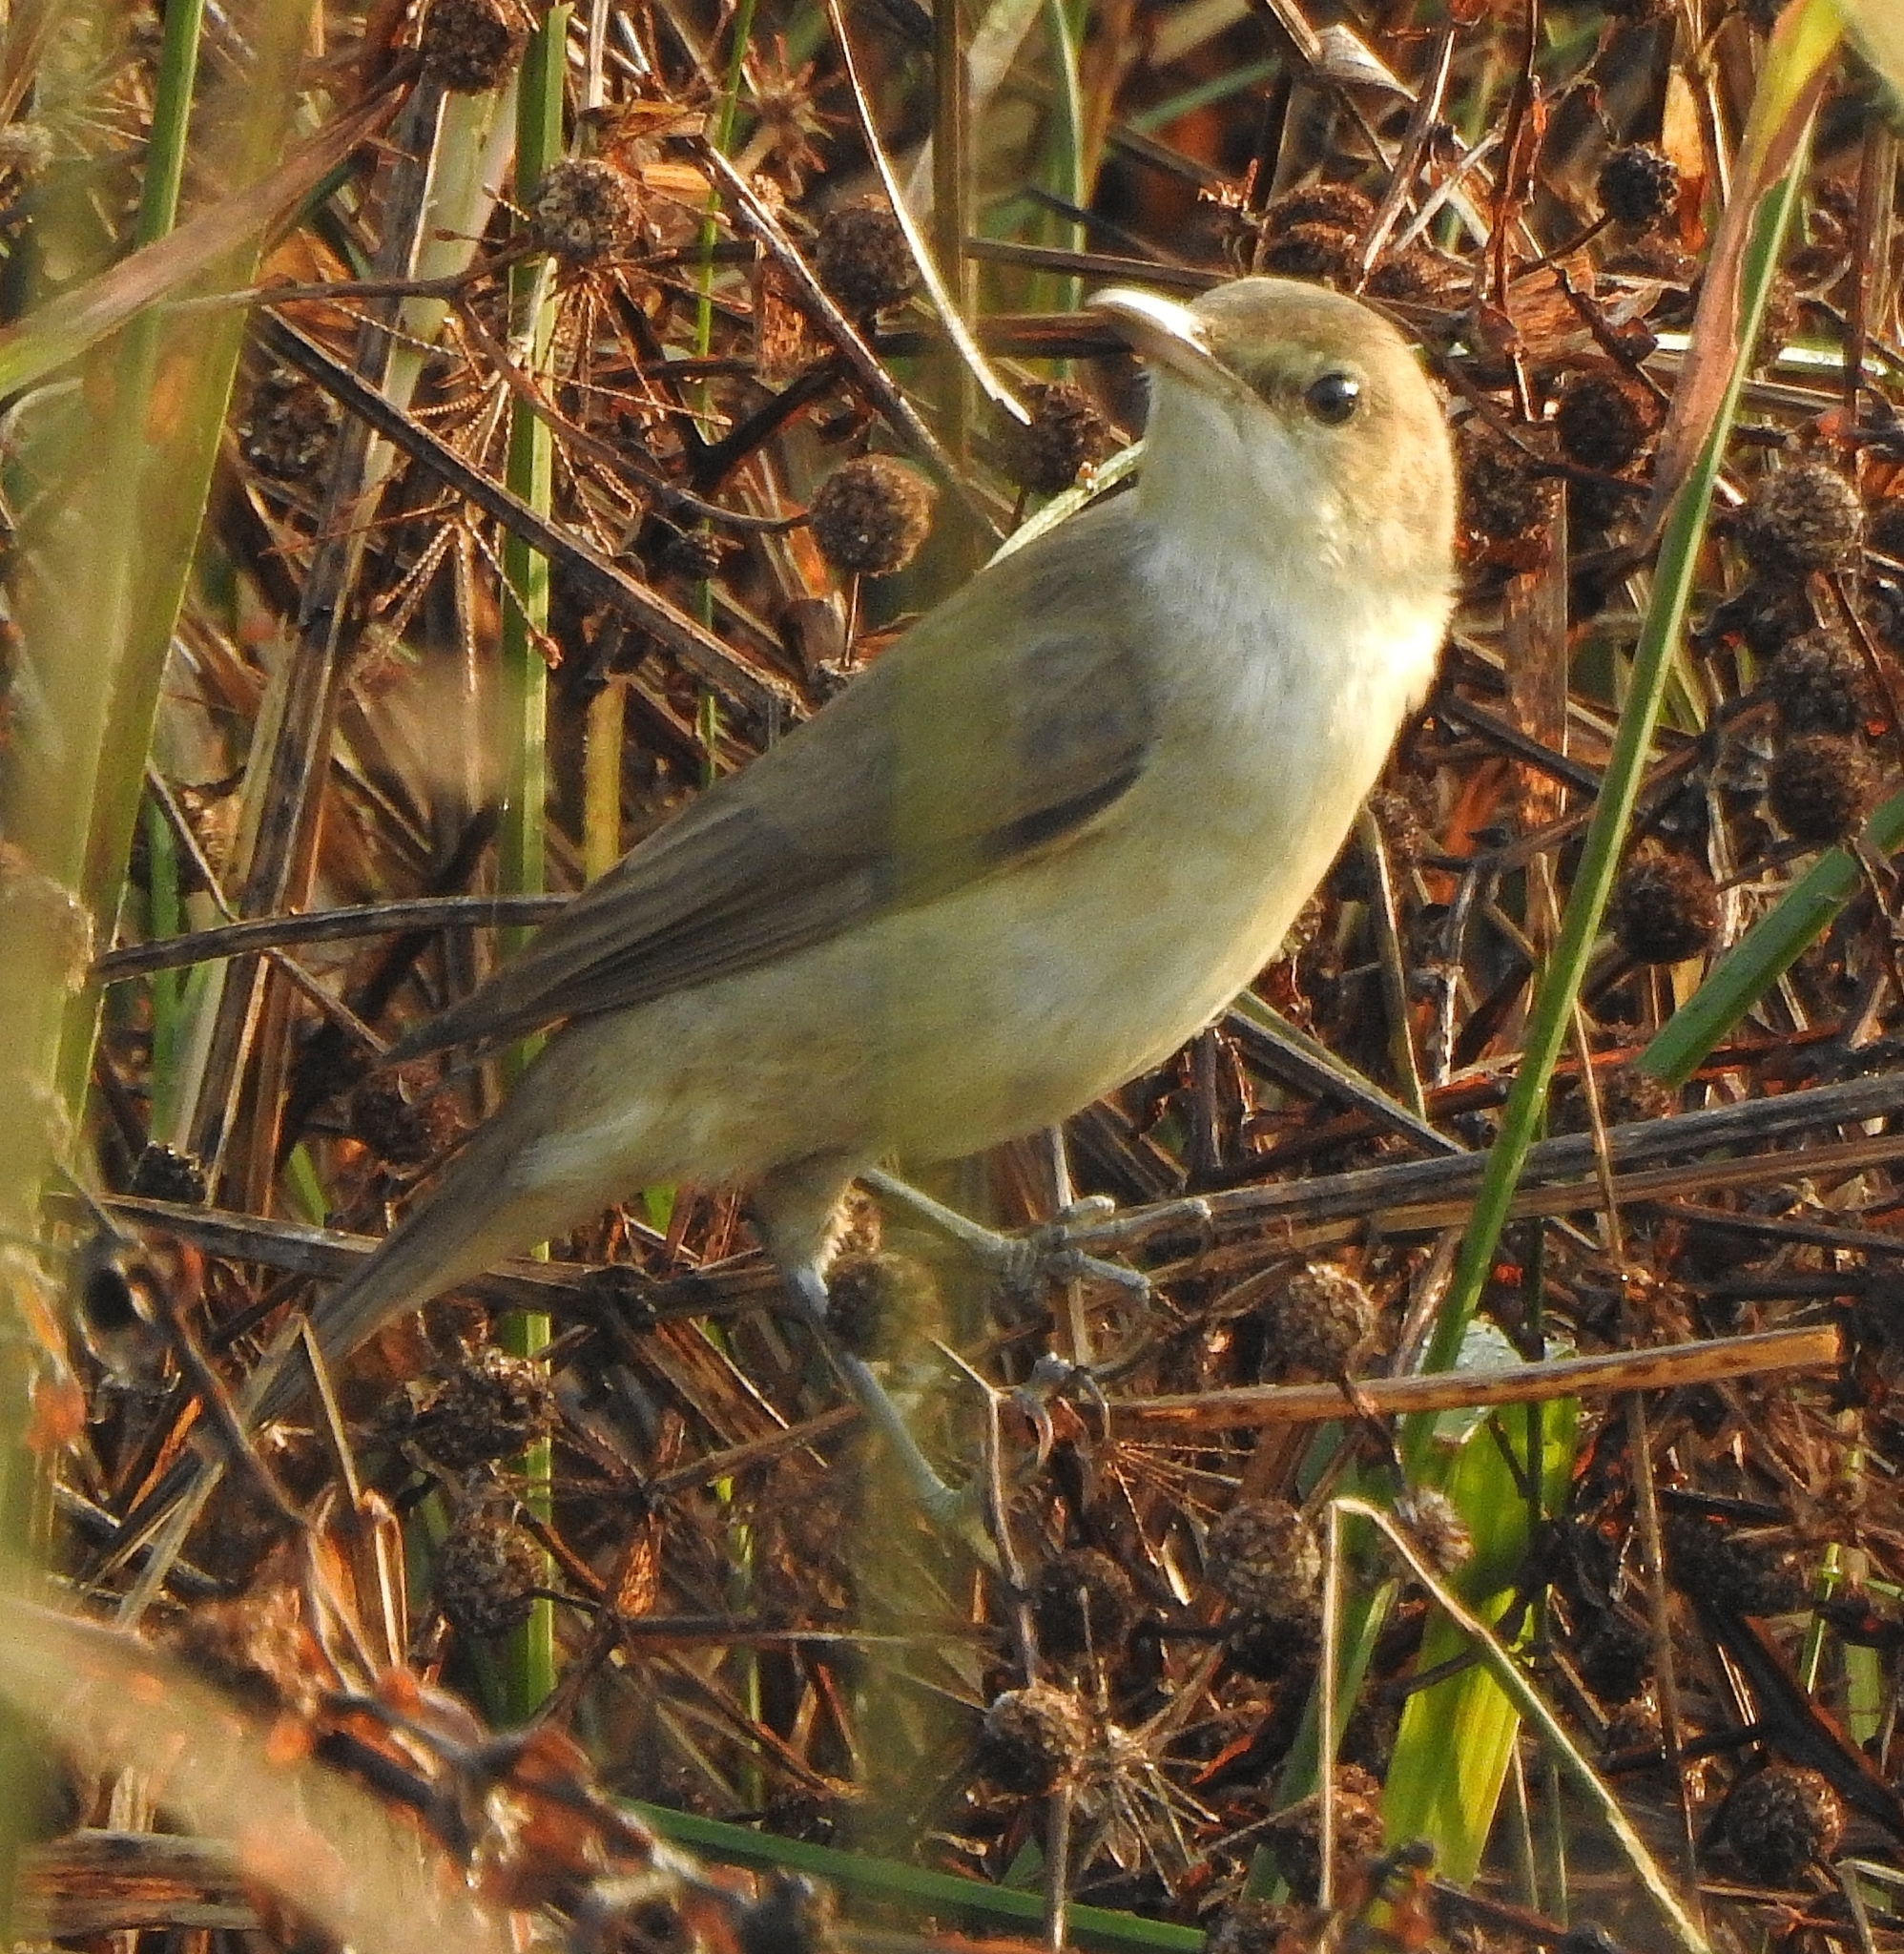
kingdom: Animalia
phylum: Chordata
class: Aves
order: Passeriformes
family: Acrocephalidae
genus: Acrocephalus
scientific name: Acrocephalus stentoreus
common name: Clamorous reed warbler
